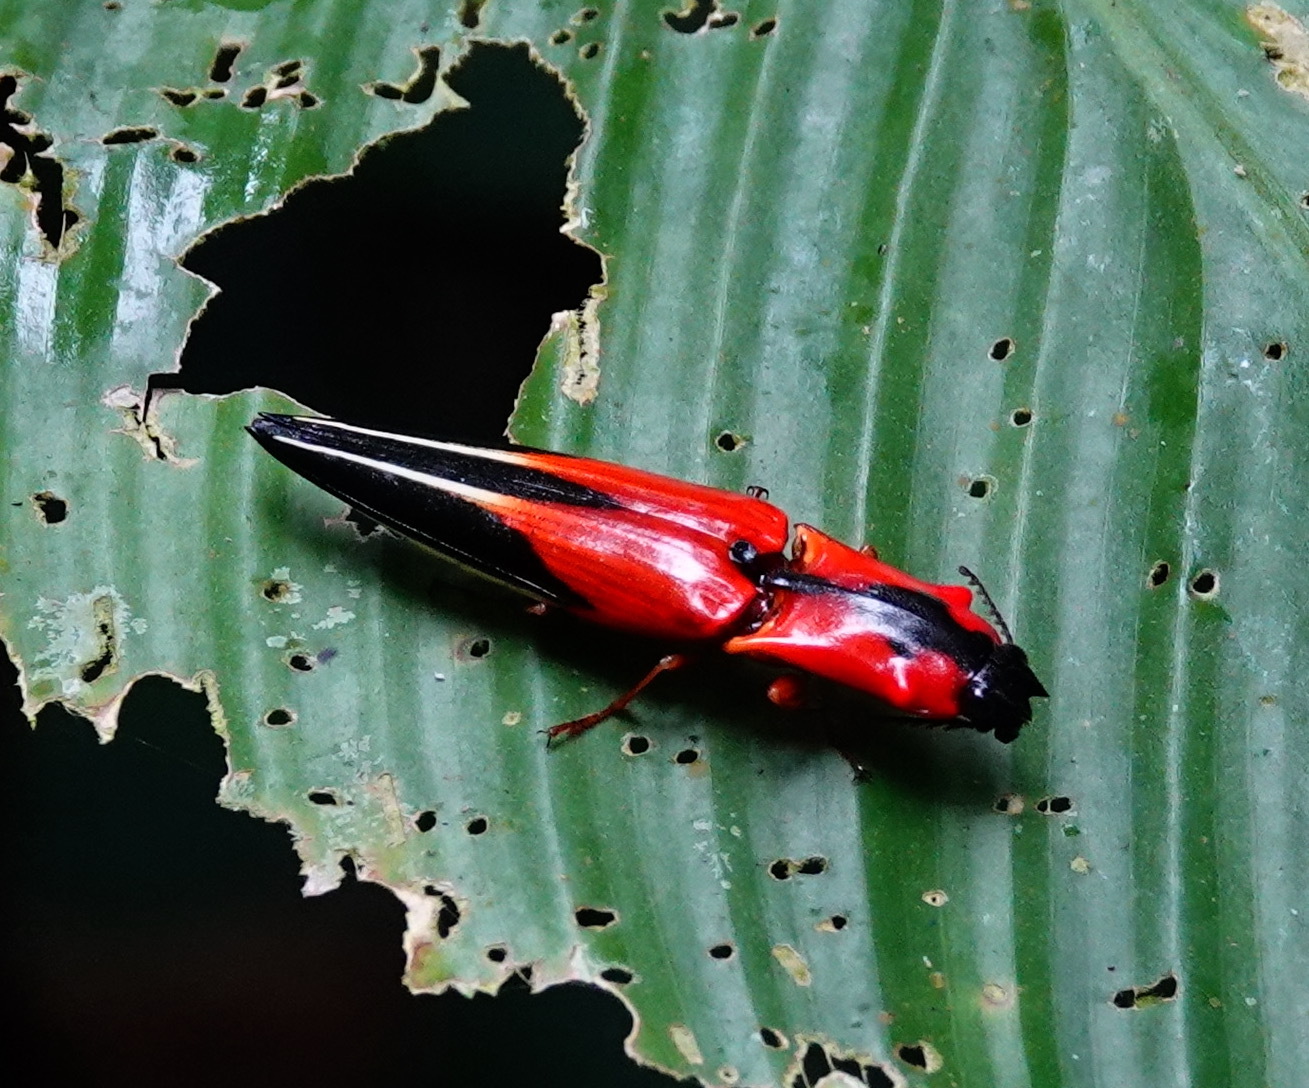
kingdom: Animalia
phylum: Arthropoda
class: Insecta
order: Coleoptera
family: Elateridae
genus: Semiotus
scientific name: Semiotus angulatus
